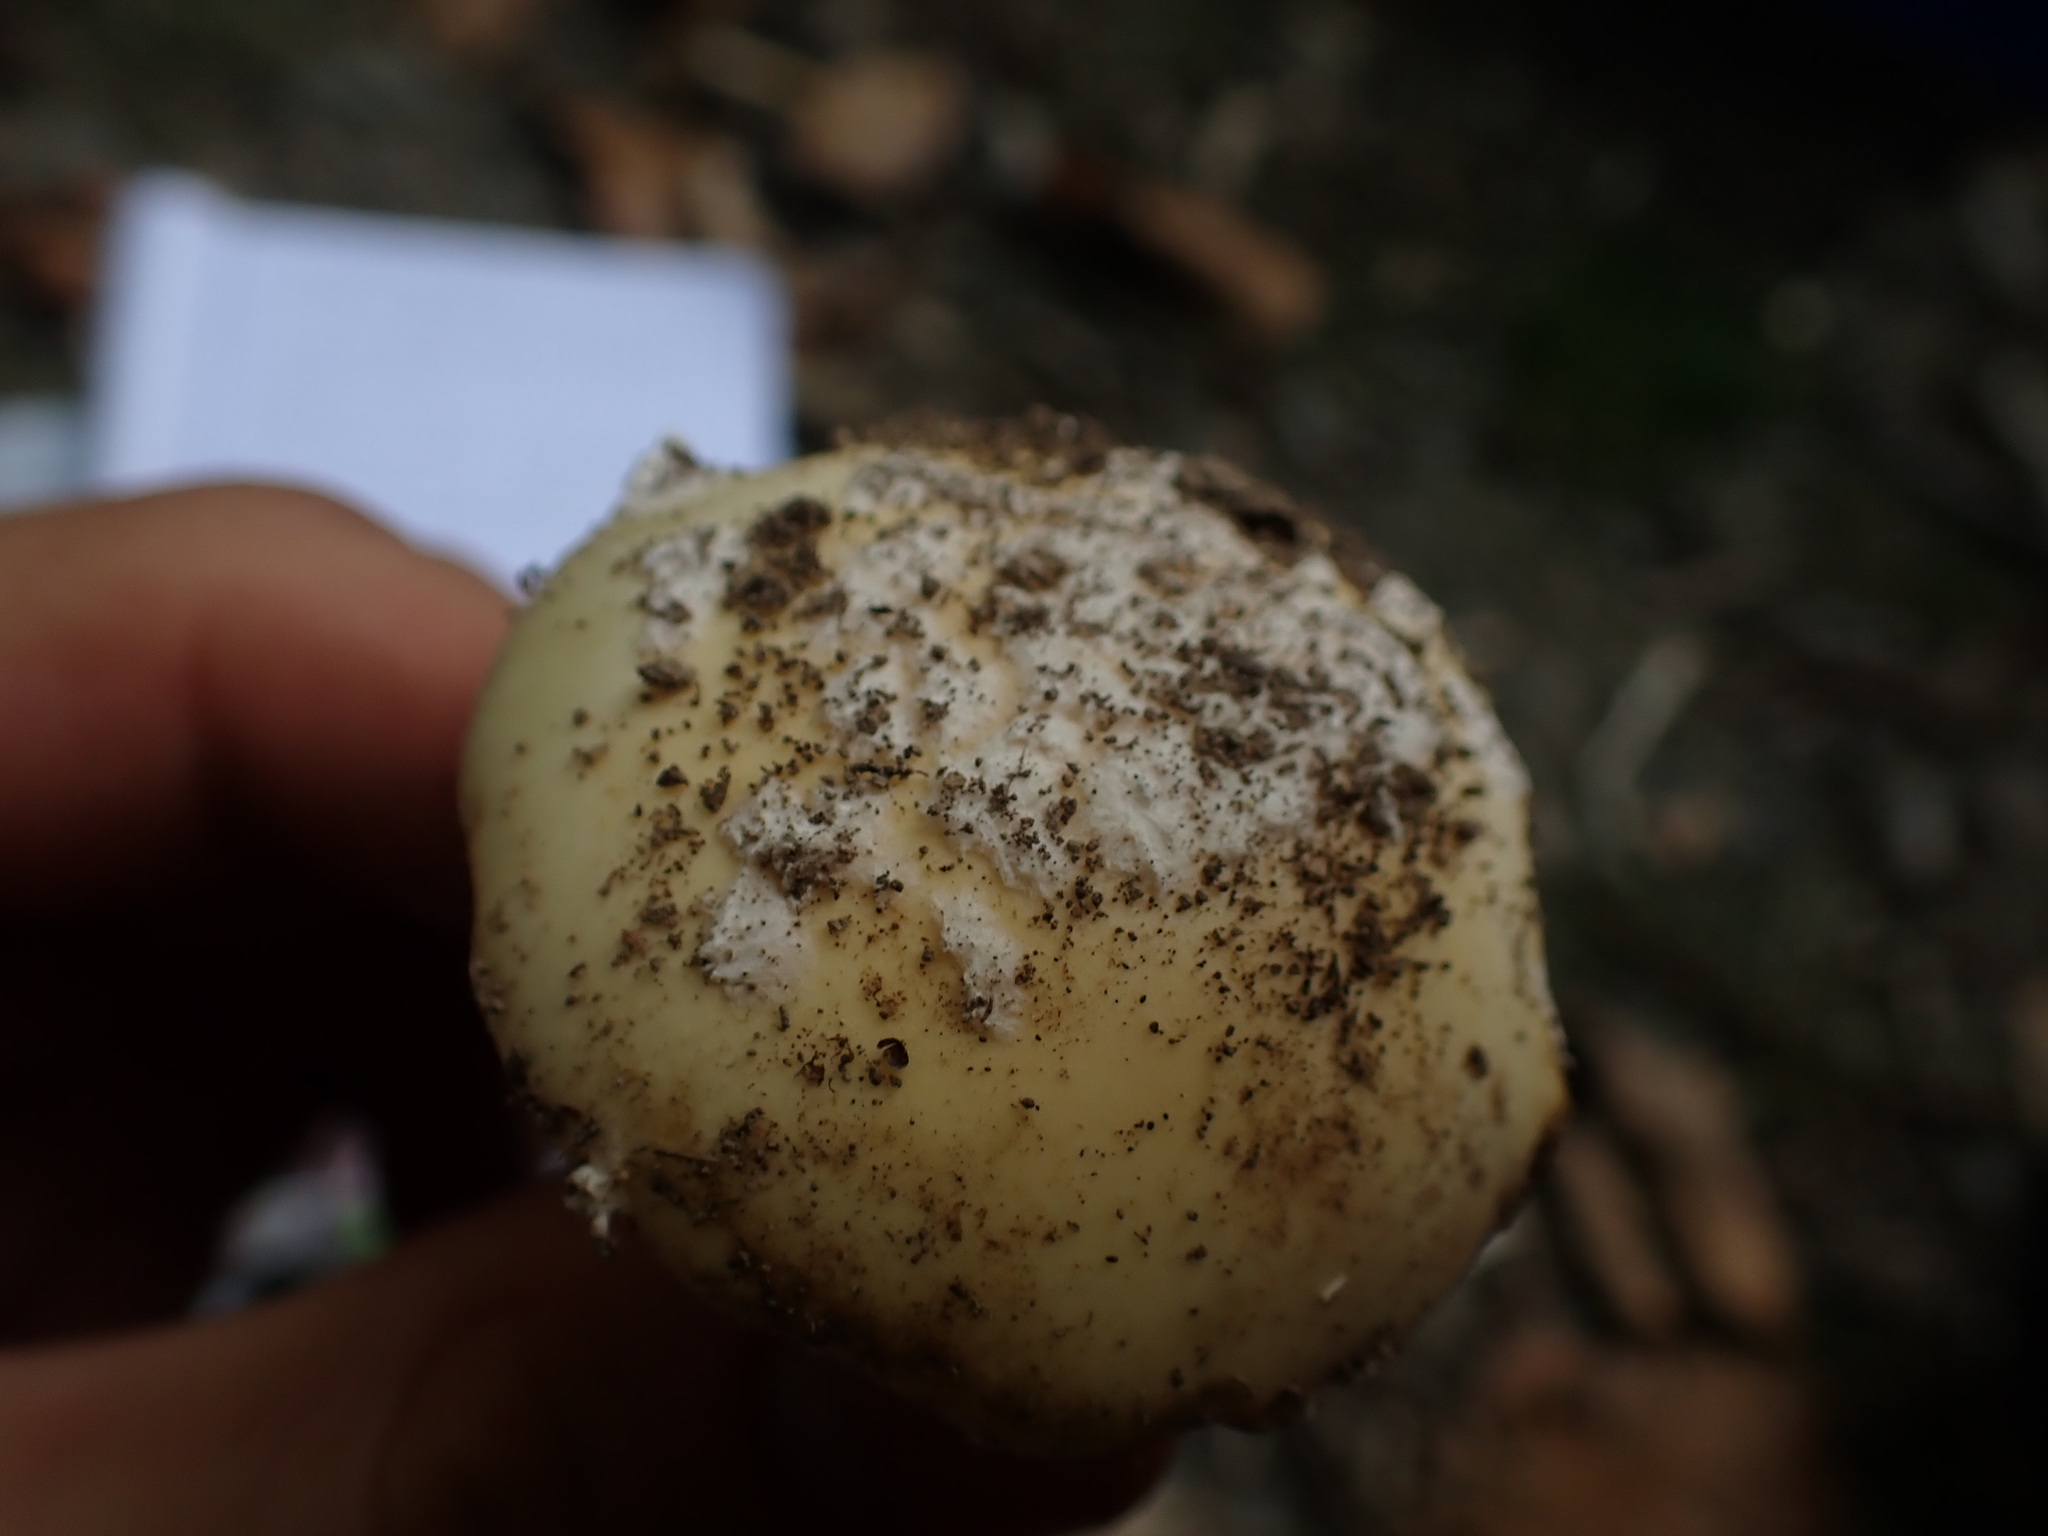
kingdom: Fungi
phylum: Basidiomycota
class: Agaricomycetes
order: Agaricales
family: Amanitaceae
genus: Amanita
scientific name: Amanita gemmata
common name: Jewelled amanita
